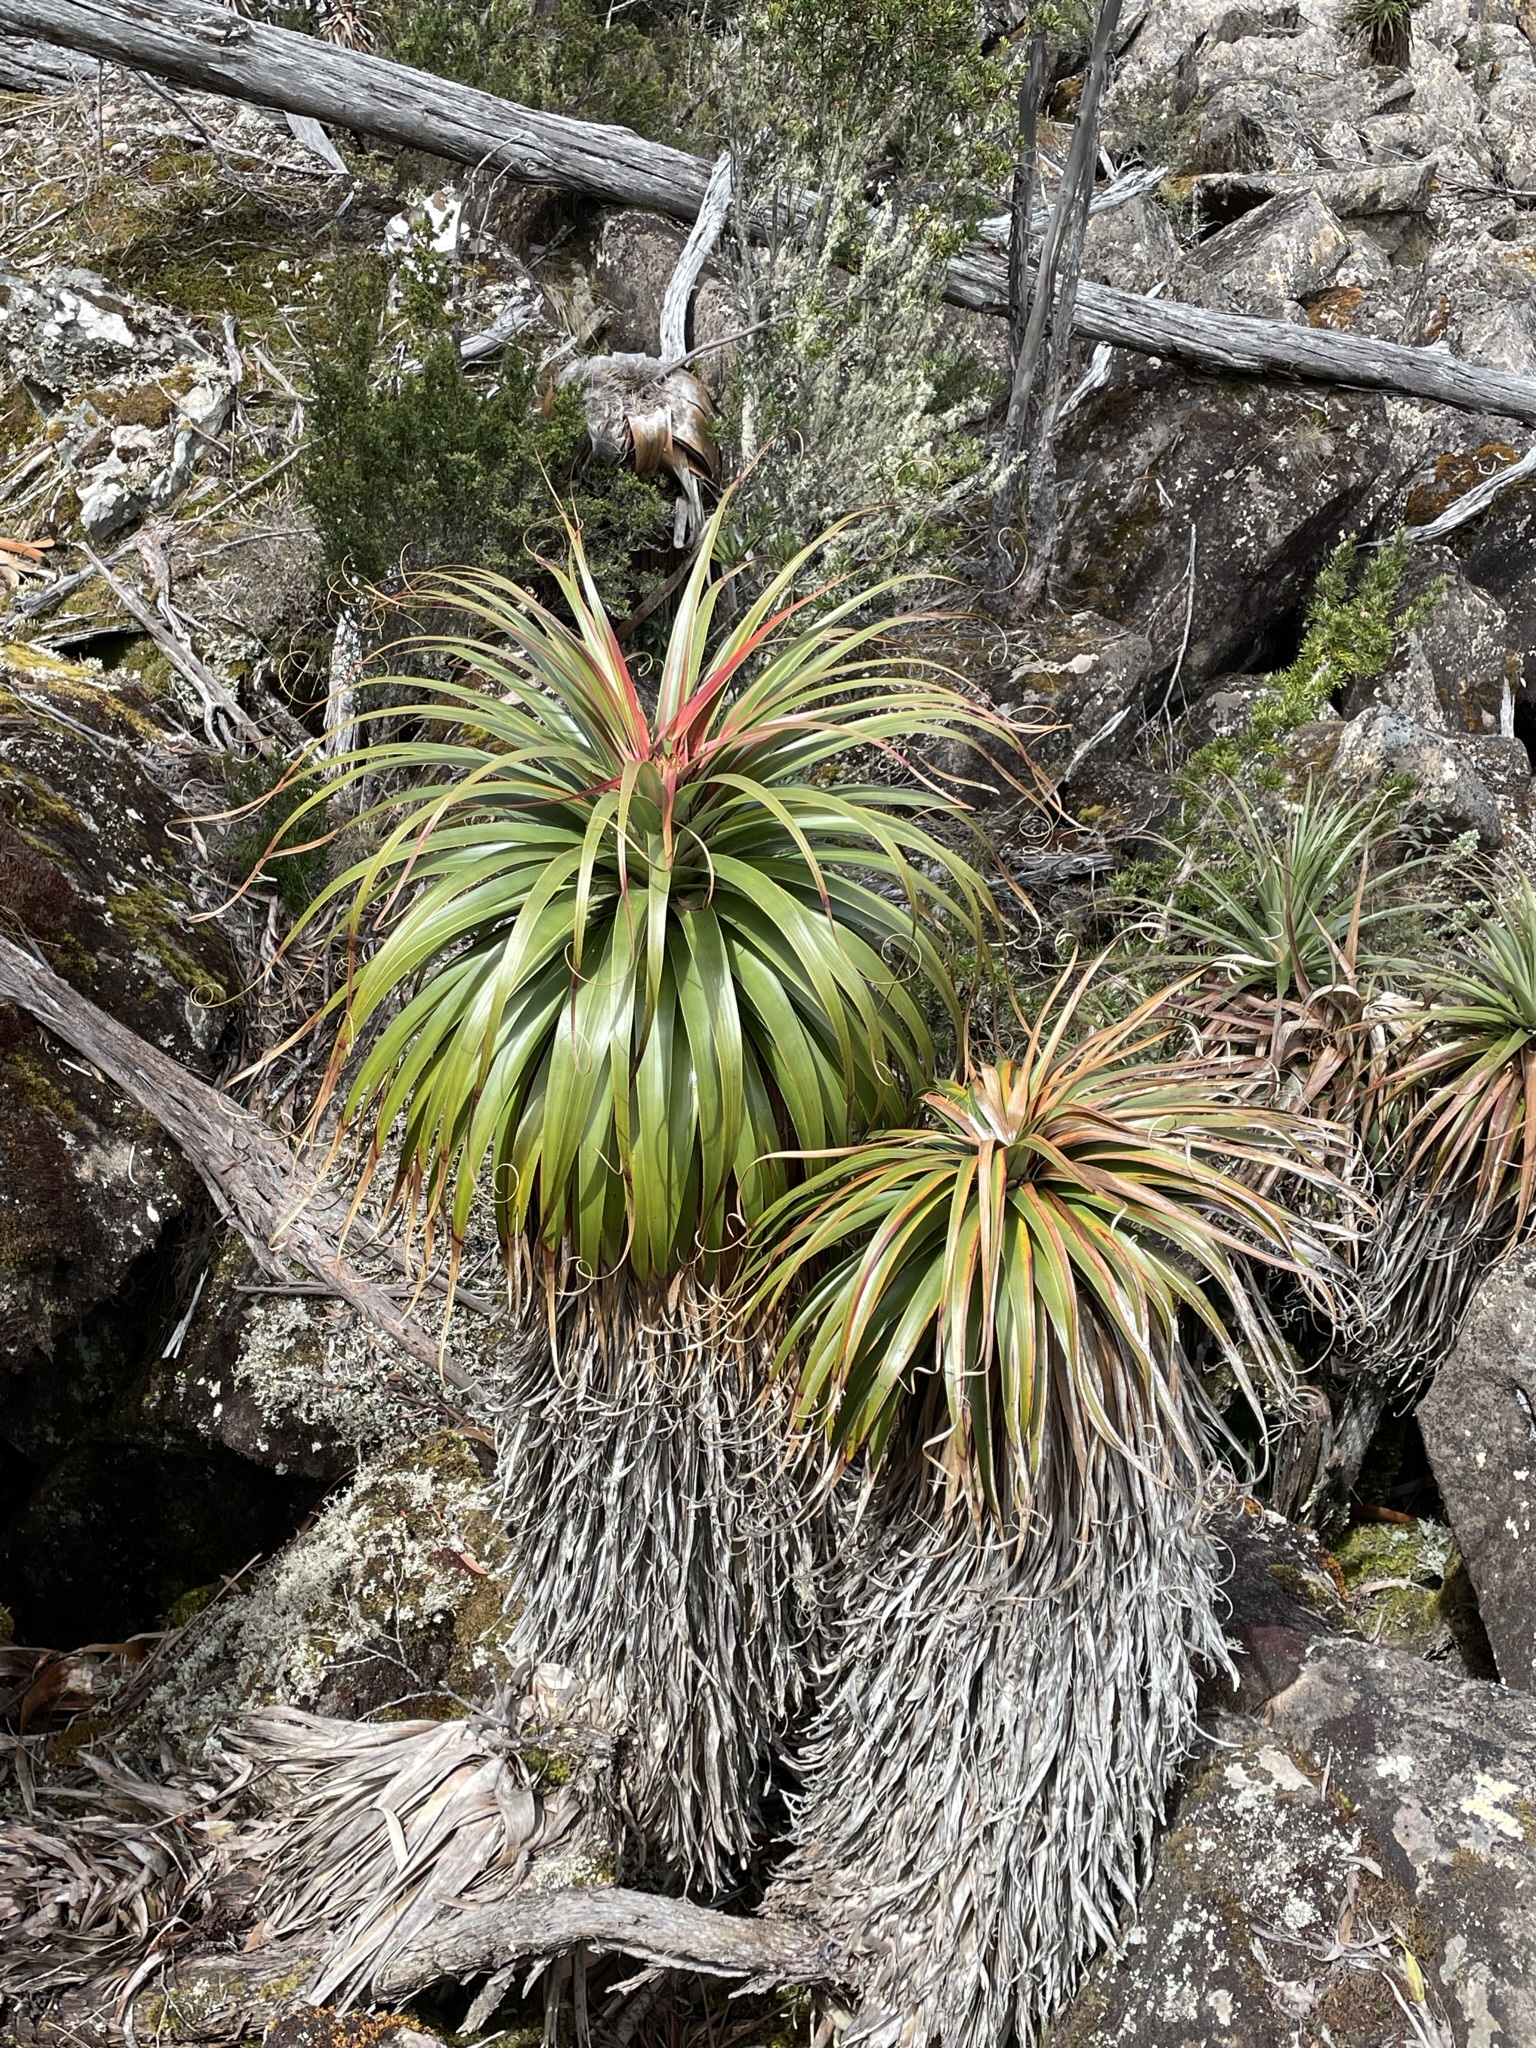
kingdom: Plantae
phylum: Tracheophyta
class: Magnoliopsida
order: Ericales
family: Ericaceae
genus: Dracophyllum
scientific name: Dracophyllum pandanifolium
